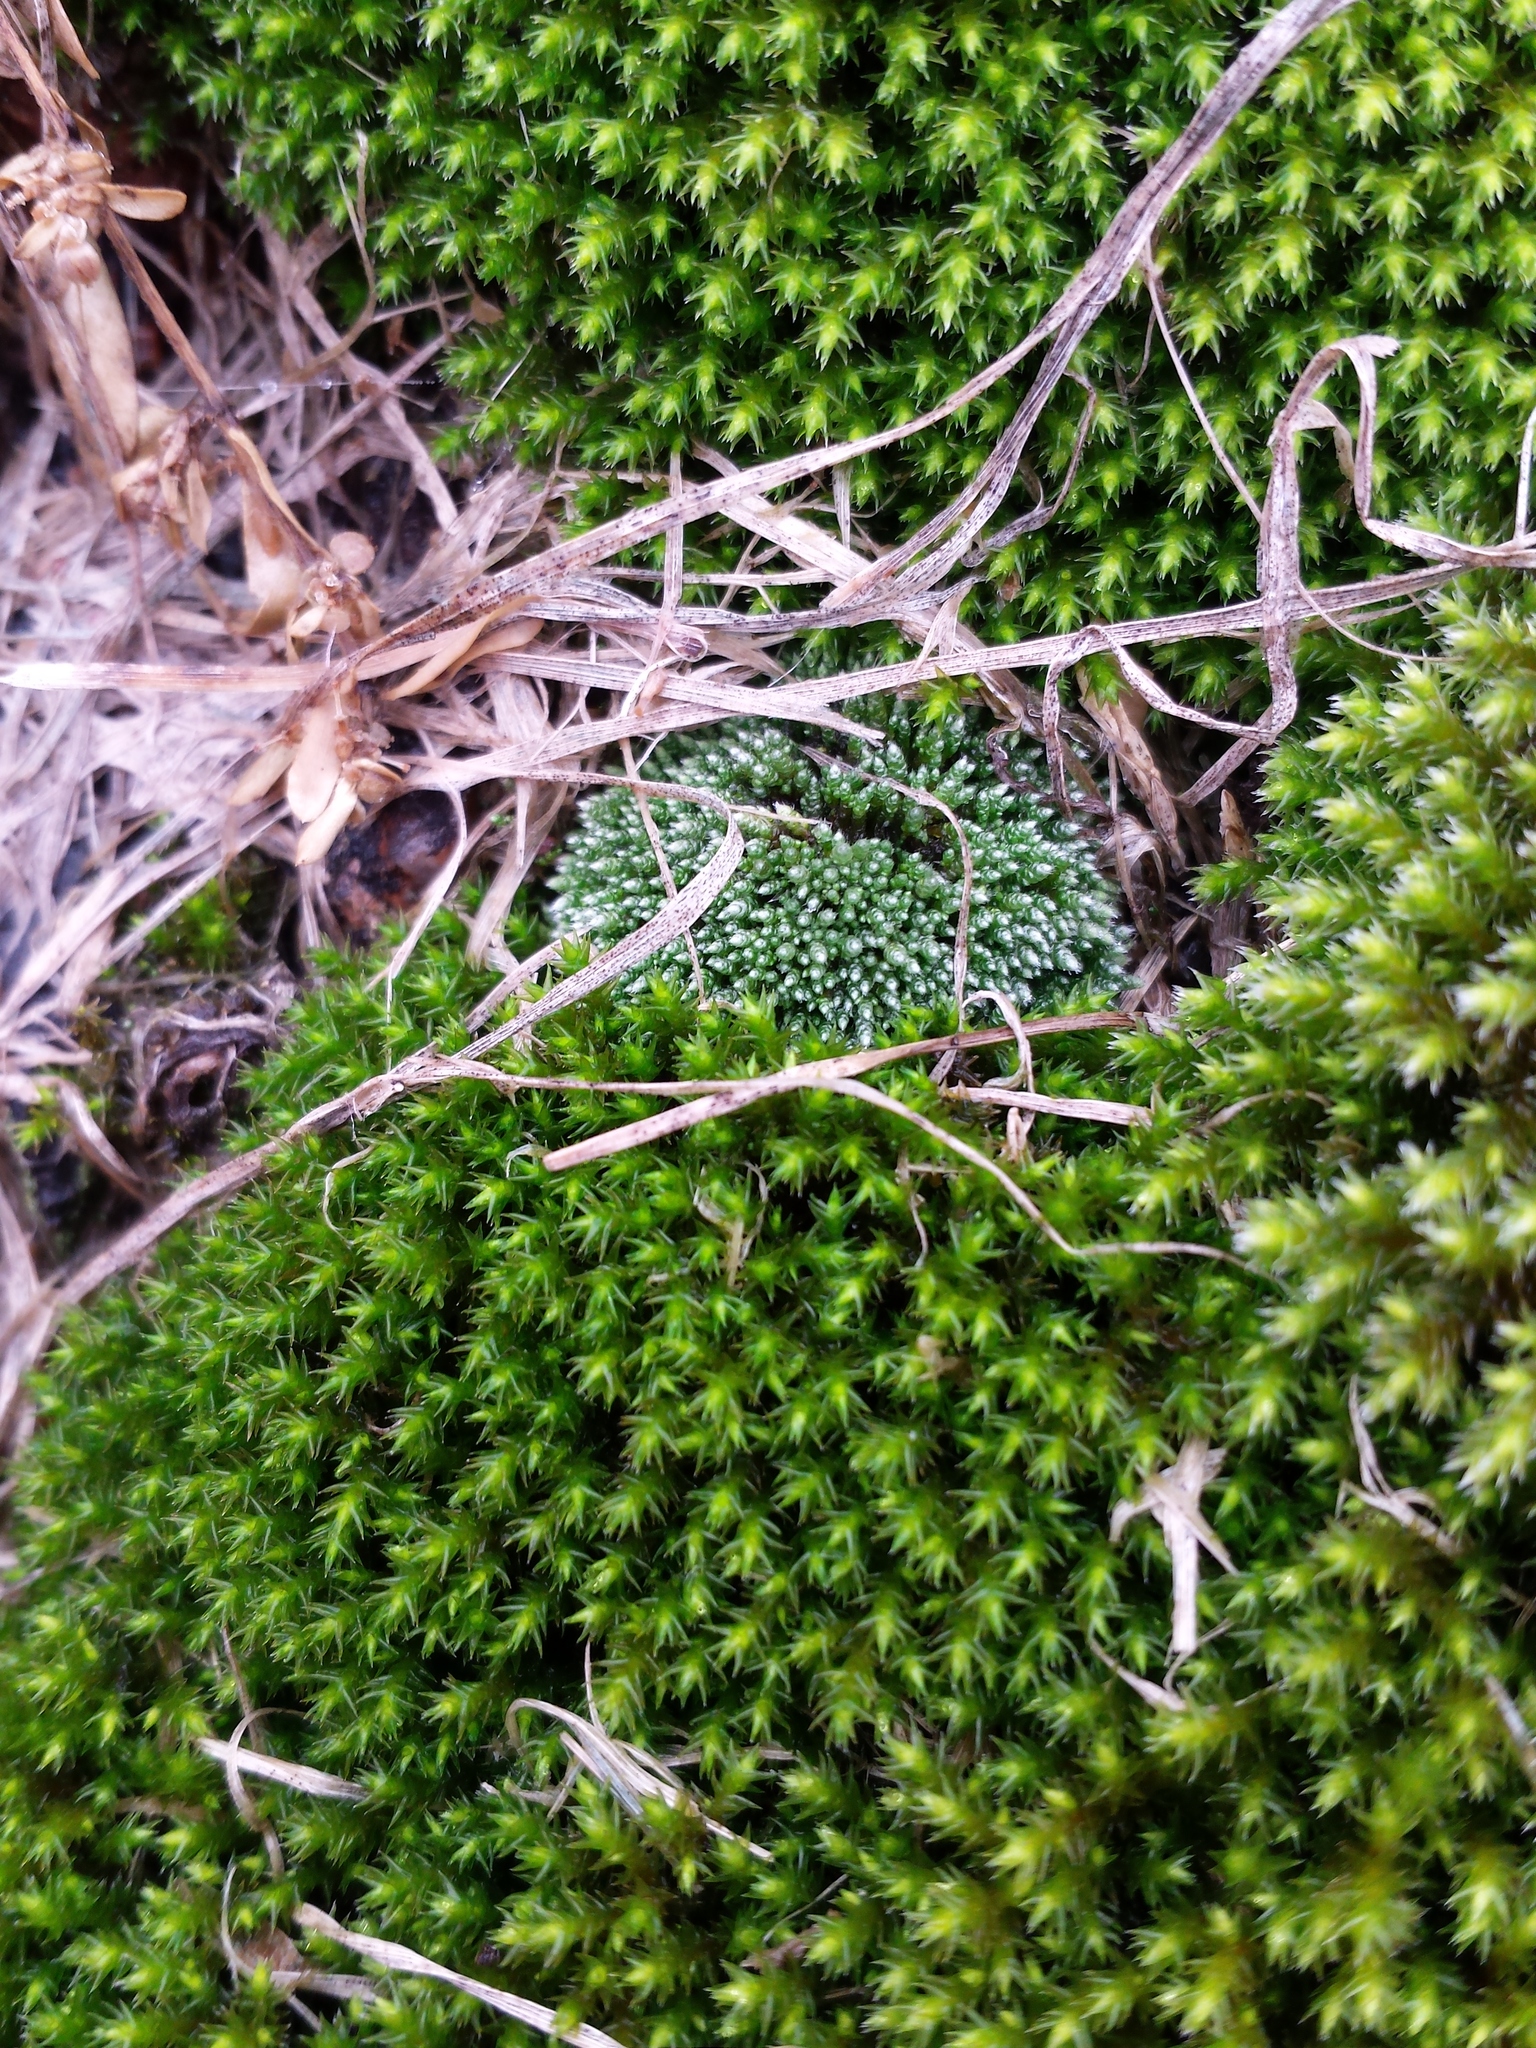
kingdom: Plantae
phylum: Bryophyta
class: Bryopsida
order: Bryales
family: Bryaceae
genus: Bryum
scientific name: Bryum argenteum
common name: Silver-moss
